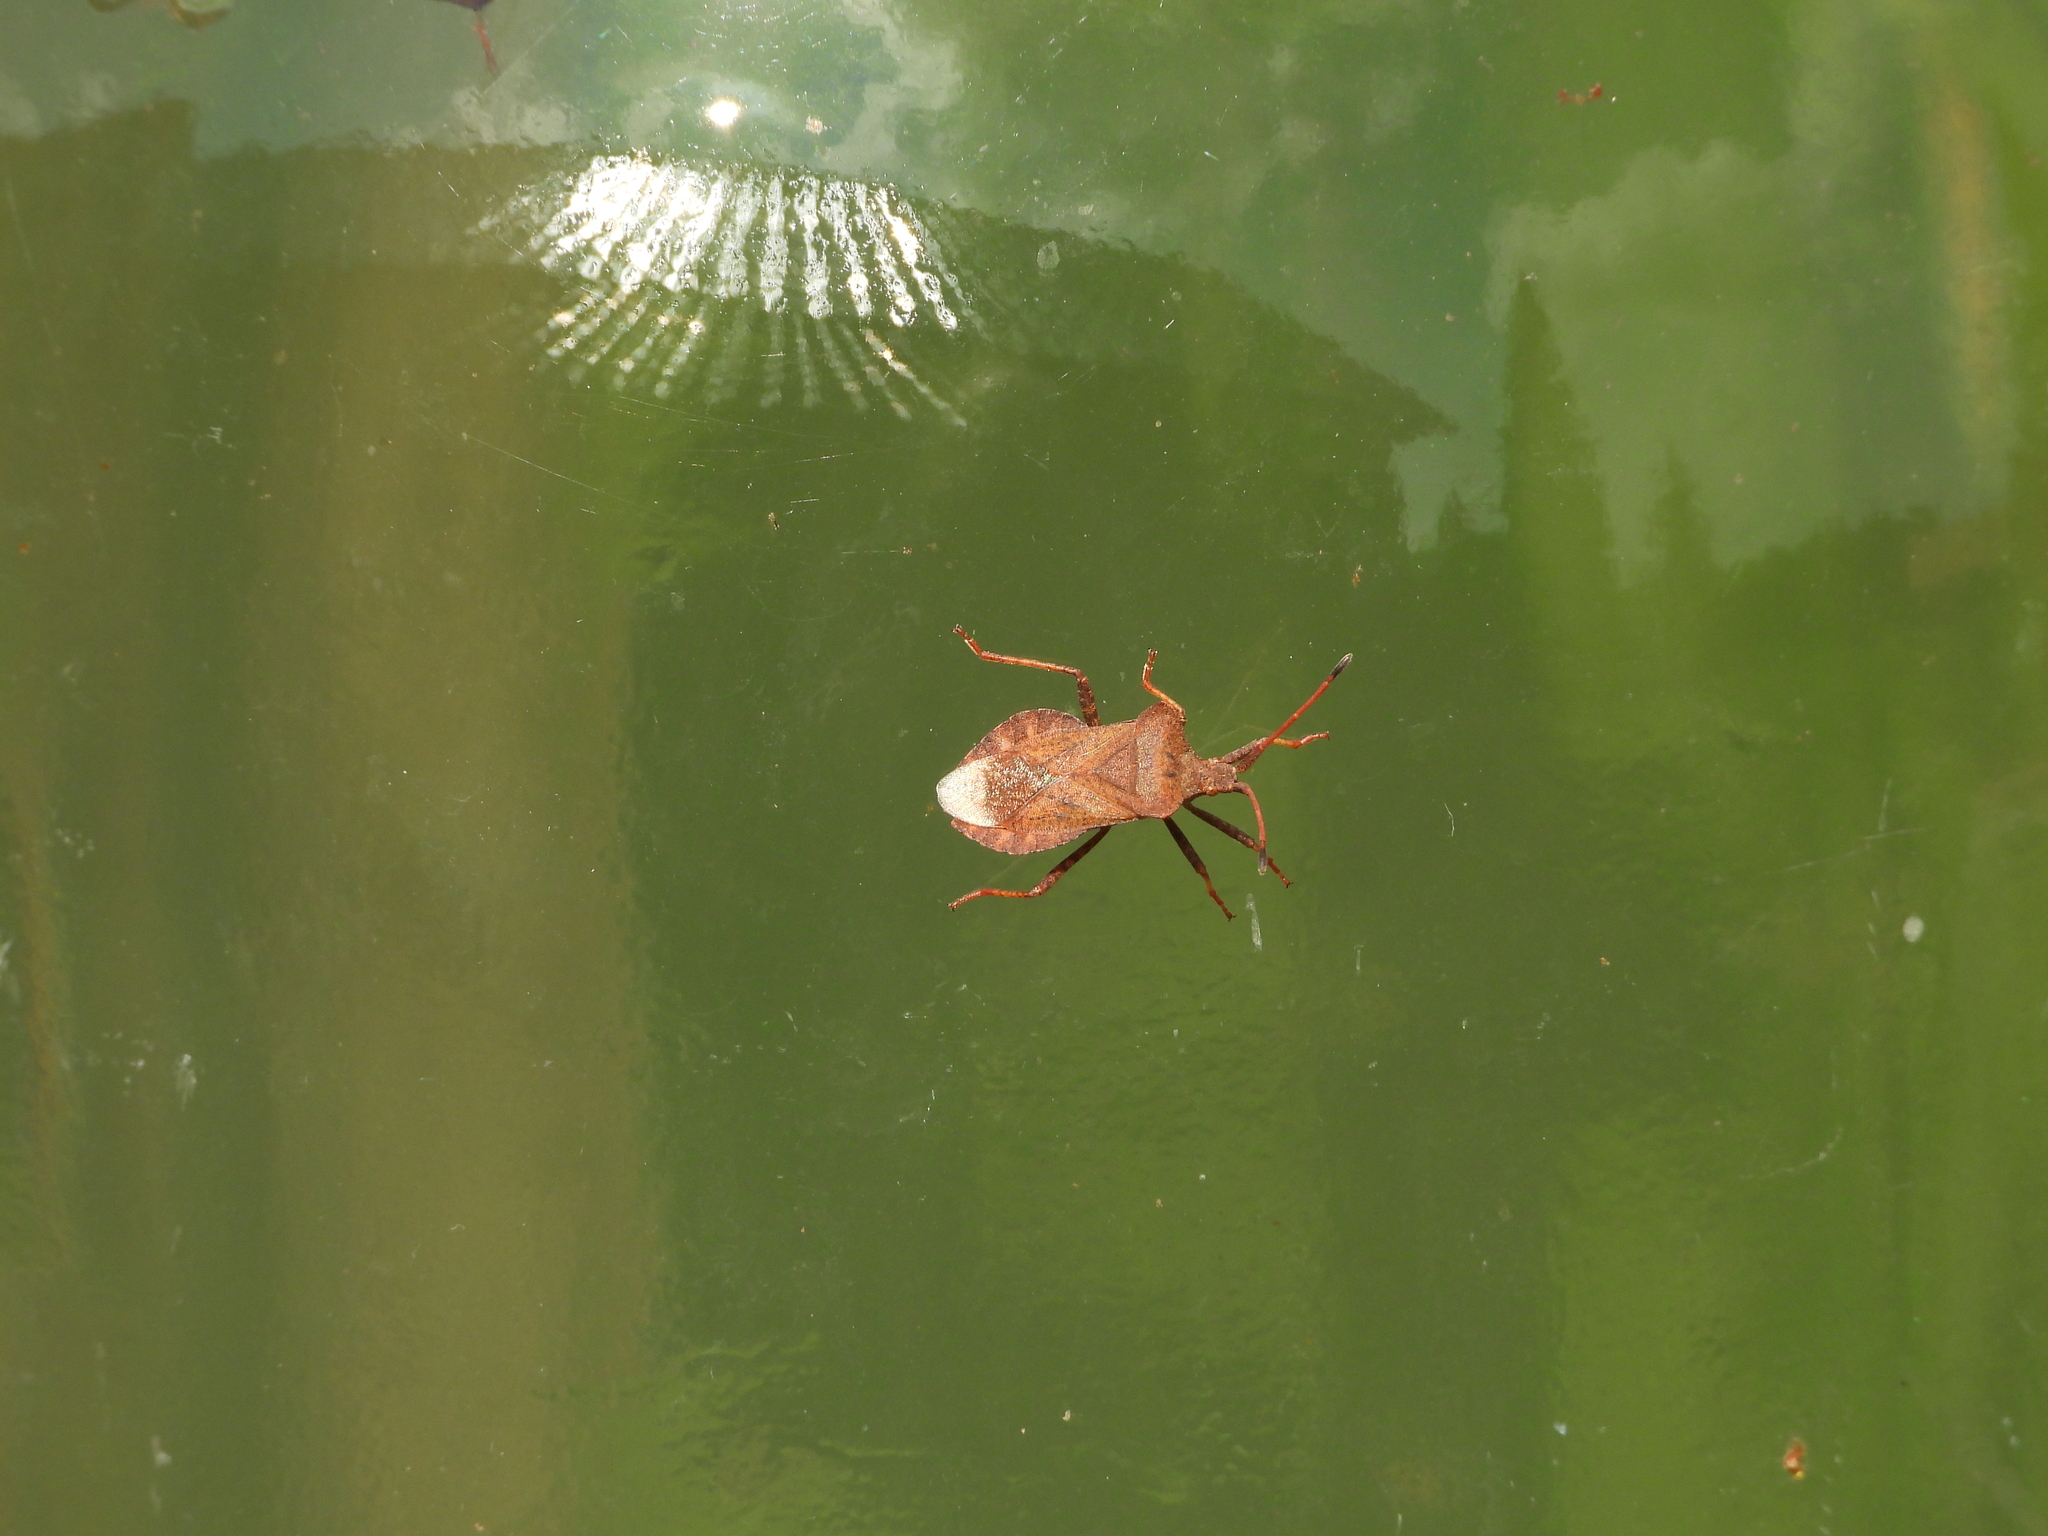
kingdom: Animalia
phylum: Arthropoda
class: Insecta
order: Hemiptera
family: Coreidae
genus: Coreus
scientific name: Coreus marginatus
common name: Dock bug
